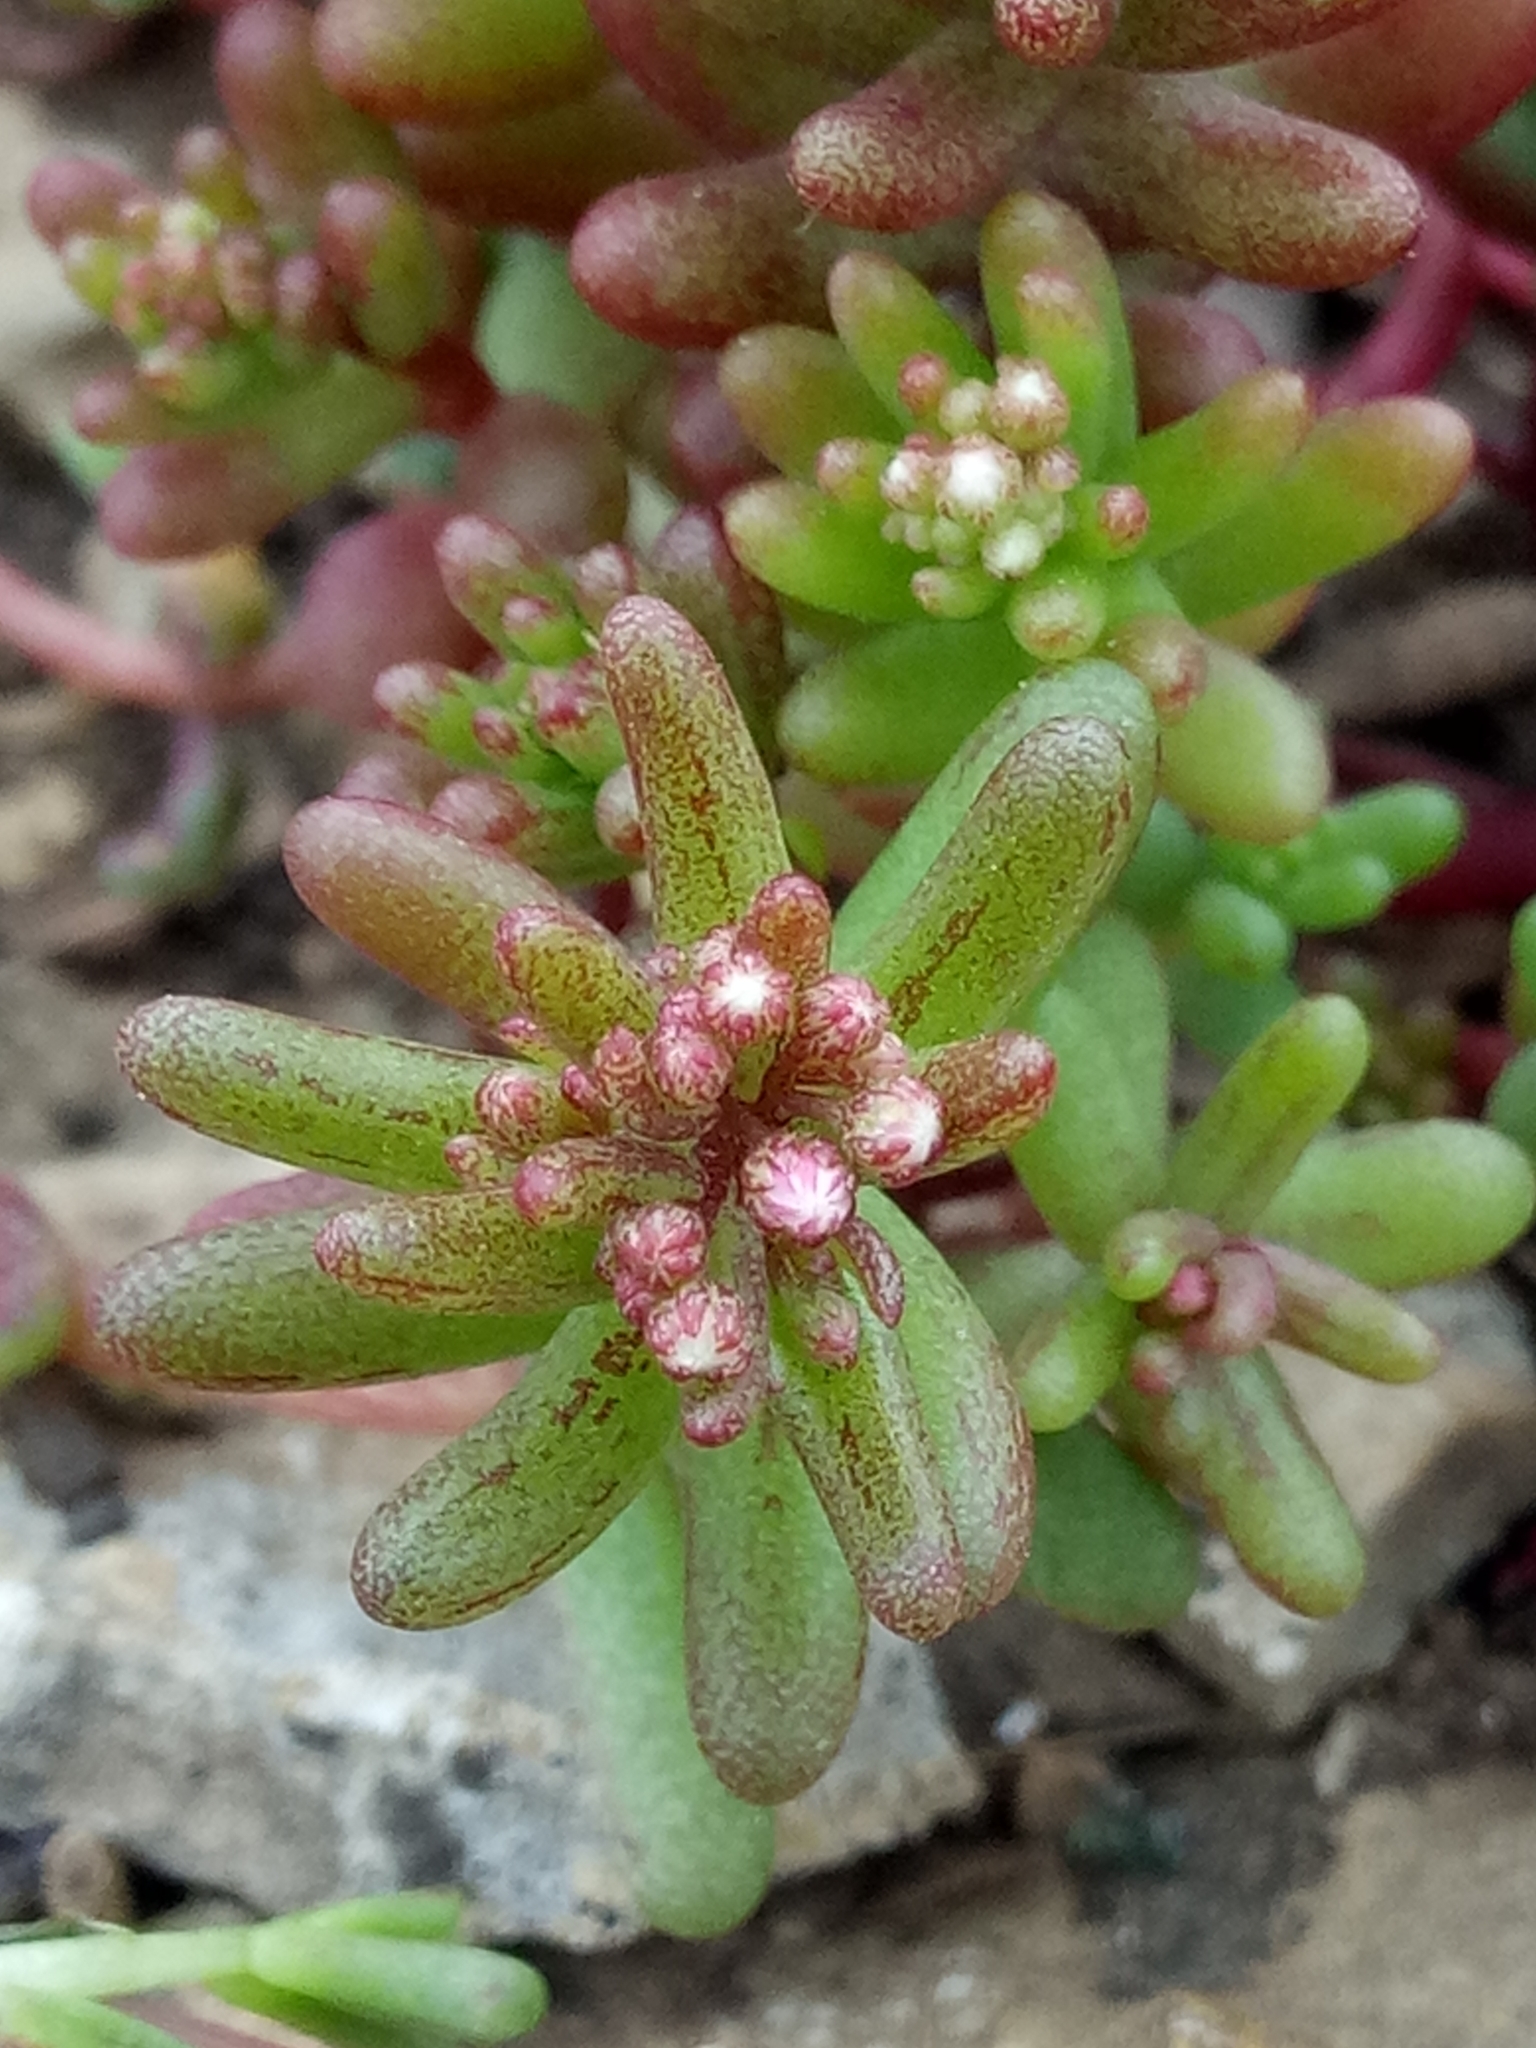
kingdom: Plantae
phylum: Tracheophyta
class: Magnoliopsida
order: Saxifragales
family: Crassulaceae
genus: Sedum
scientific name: Sedum caeruleum
